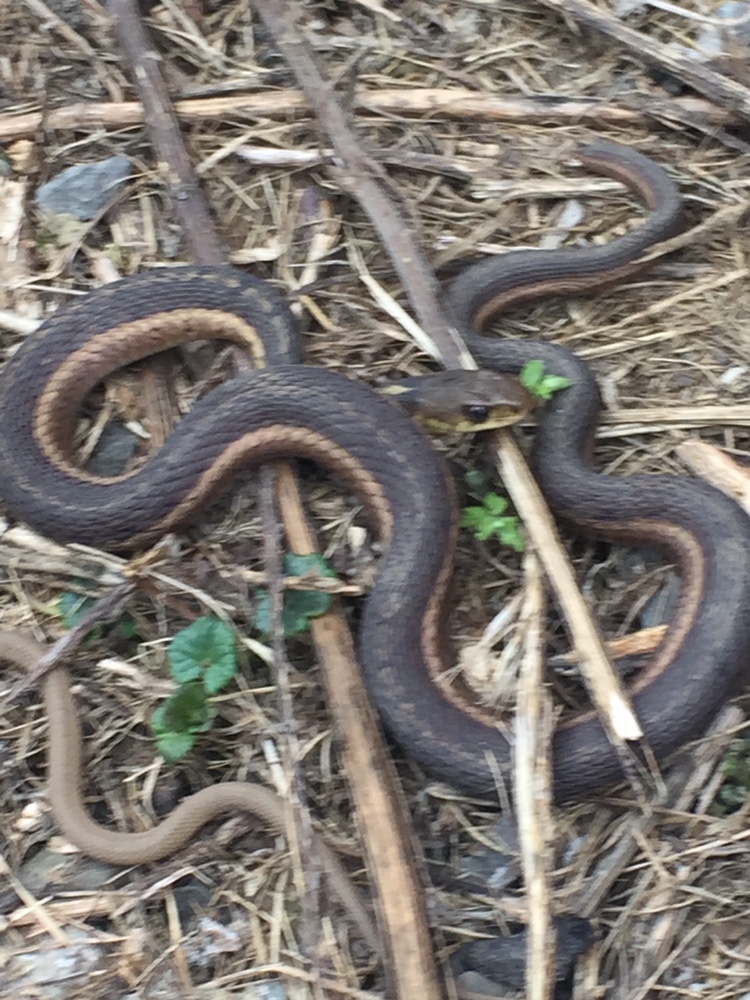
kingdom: Animalia
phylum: Chordata
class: Squamata
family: Colubridae
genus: Thamnophis
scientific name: Thamnophis sirtalis
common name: Common garter snake
